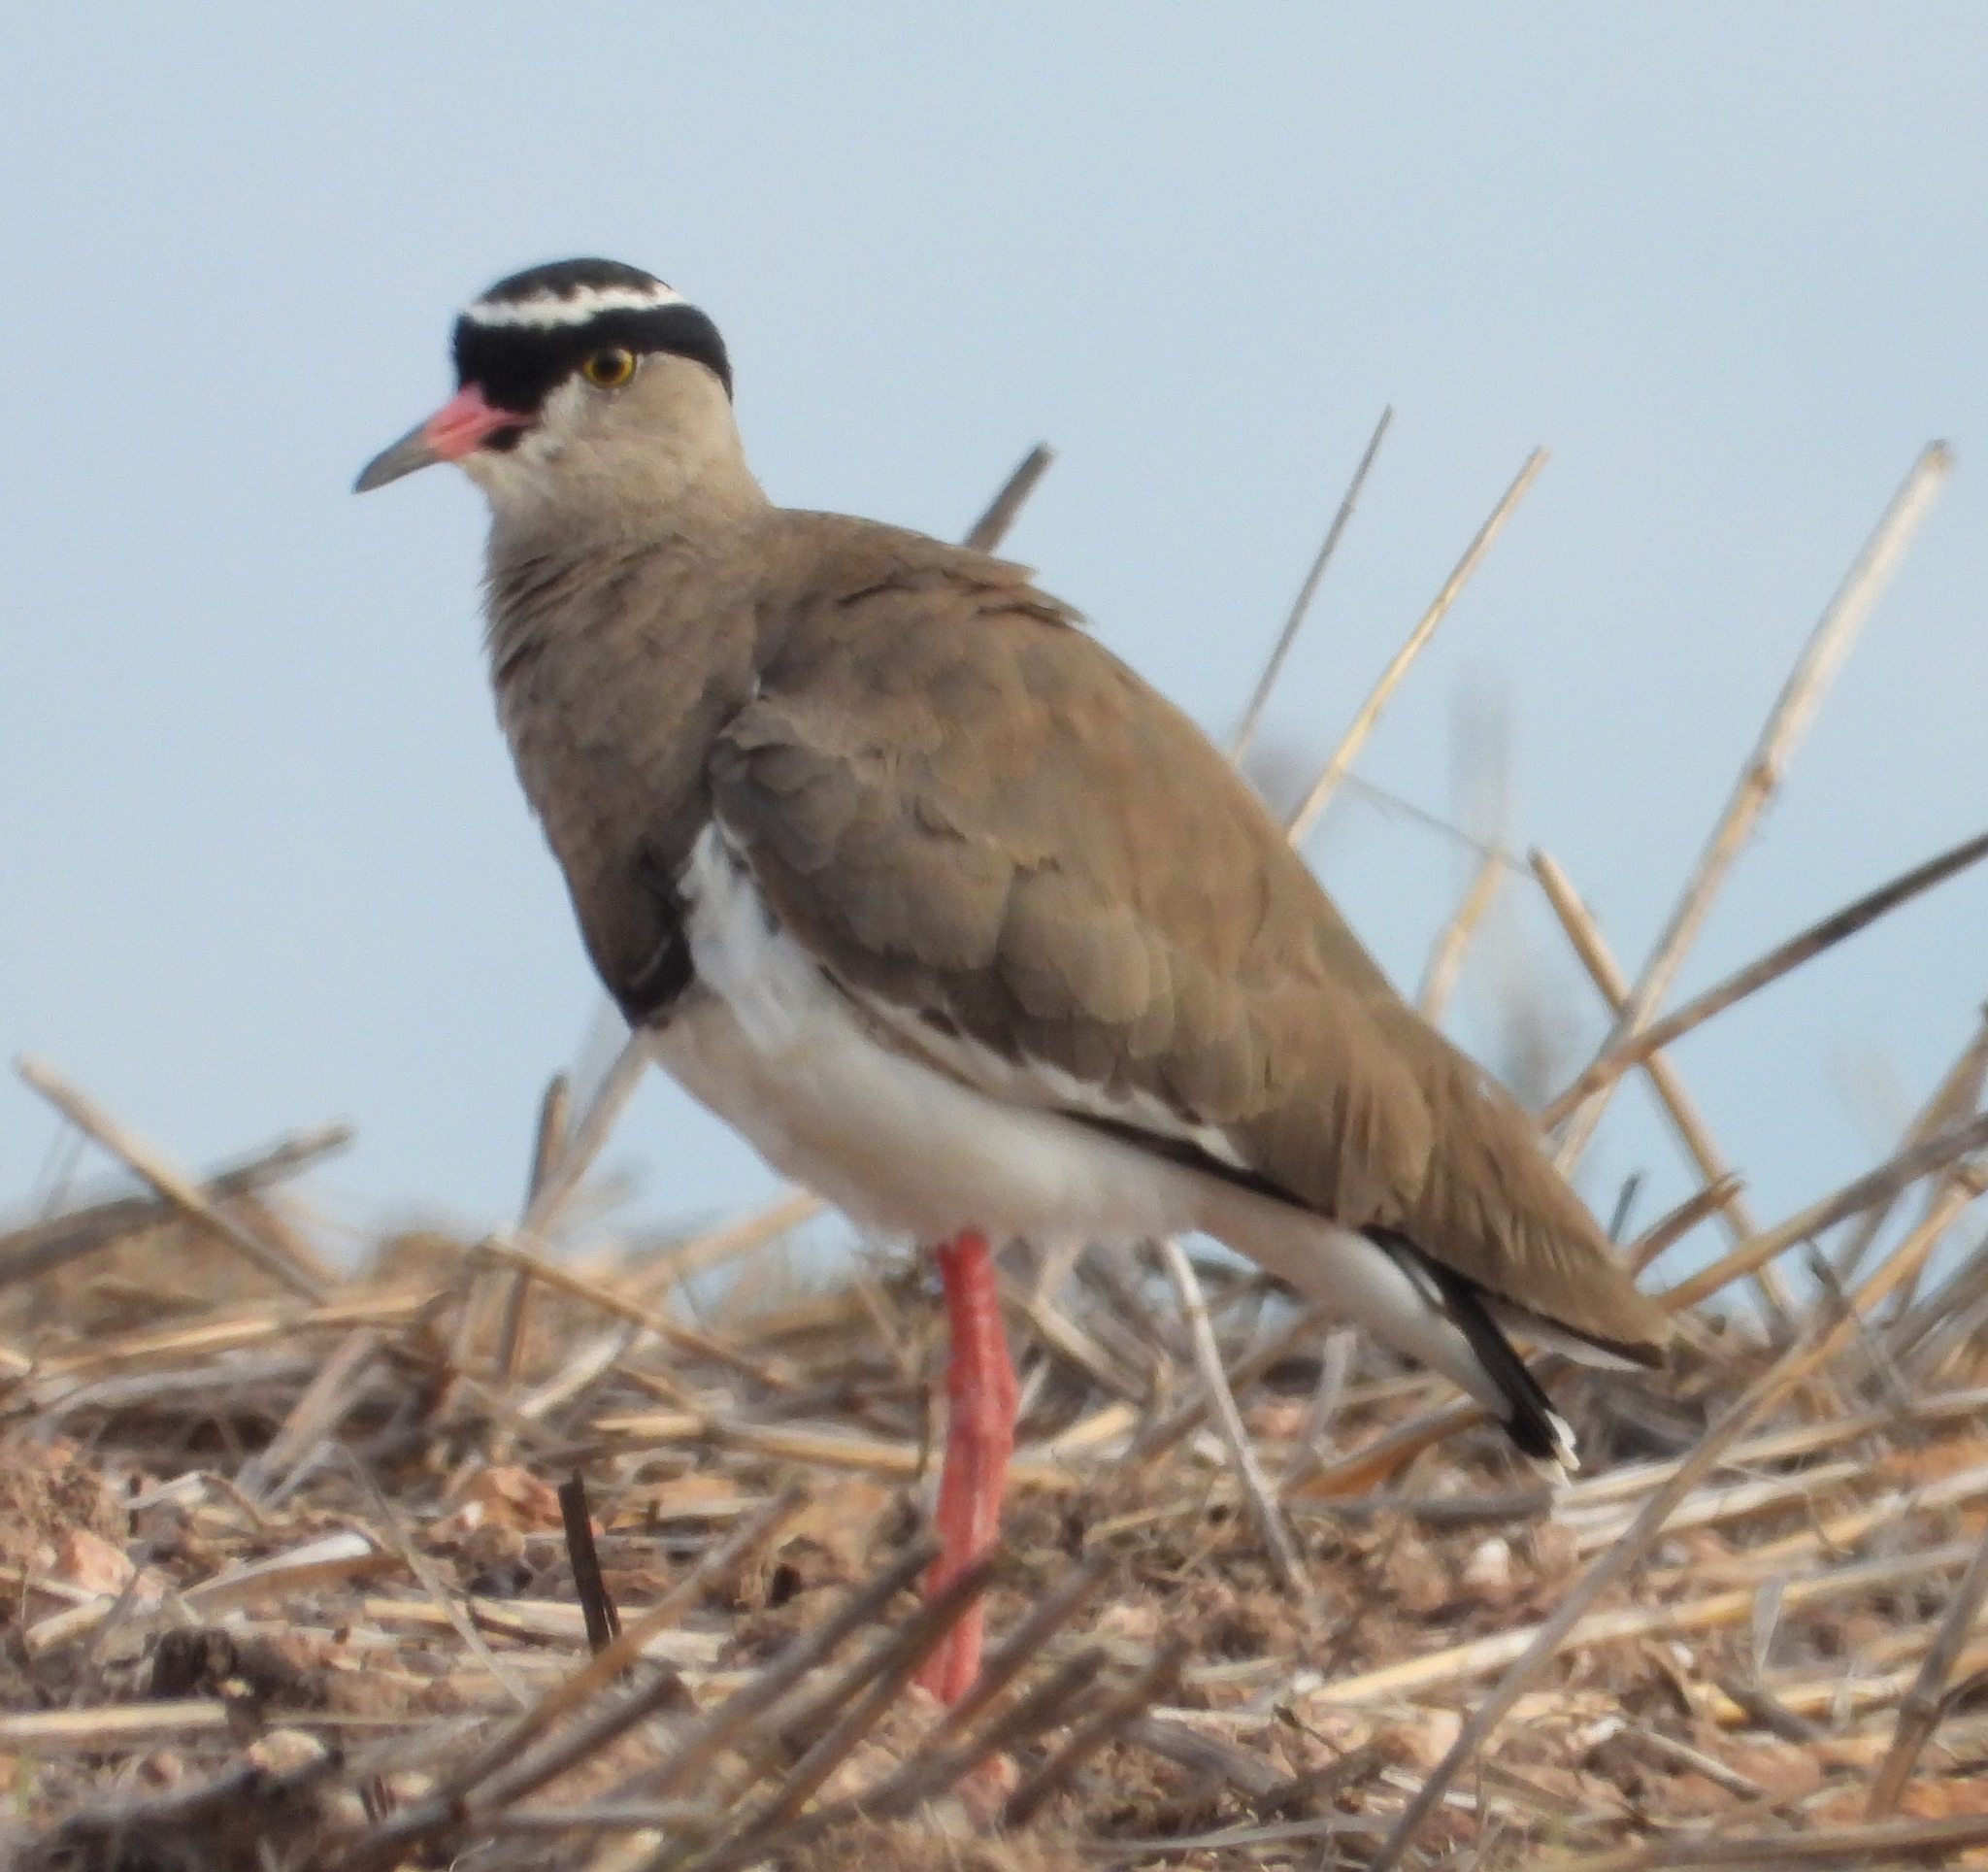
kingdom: Animalia
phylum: Chordata
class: Aves
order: Charadriiformes
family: Charadriidae
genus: Vanellus
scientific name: Vanellus coronatus
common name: Crowned lapwing
